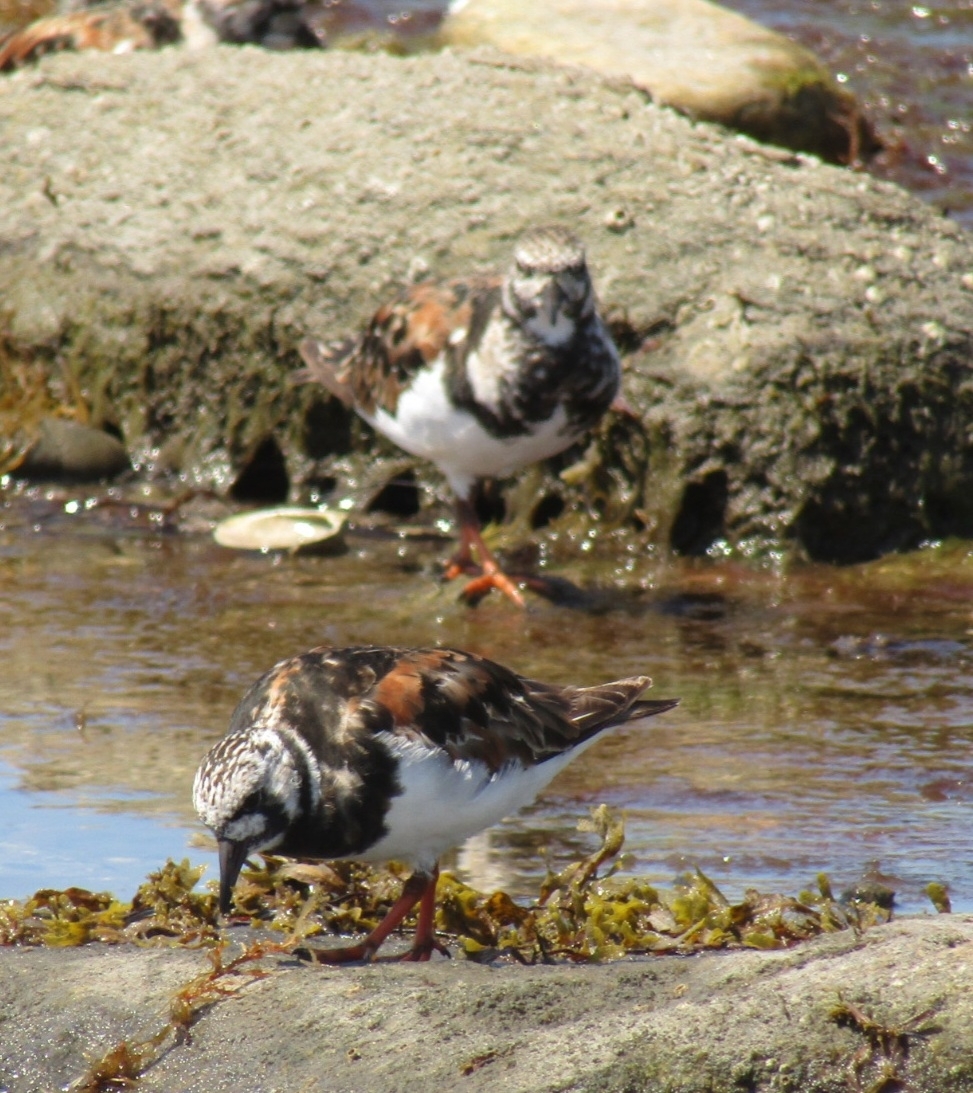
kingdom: Animalia
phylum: Chordata
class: Aves
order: Charadriiformes
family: Scolopacidae
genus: Arenaria
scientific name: Arenaria interpres
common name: Ruddy turnstone
